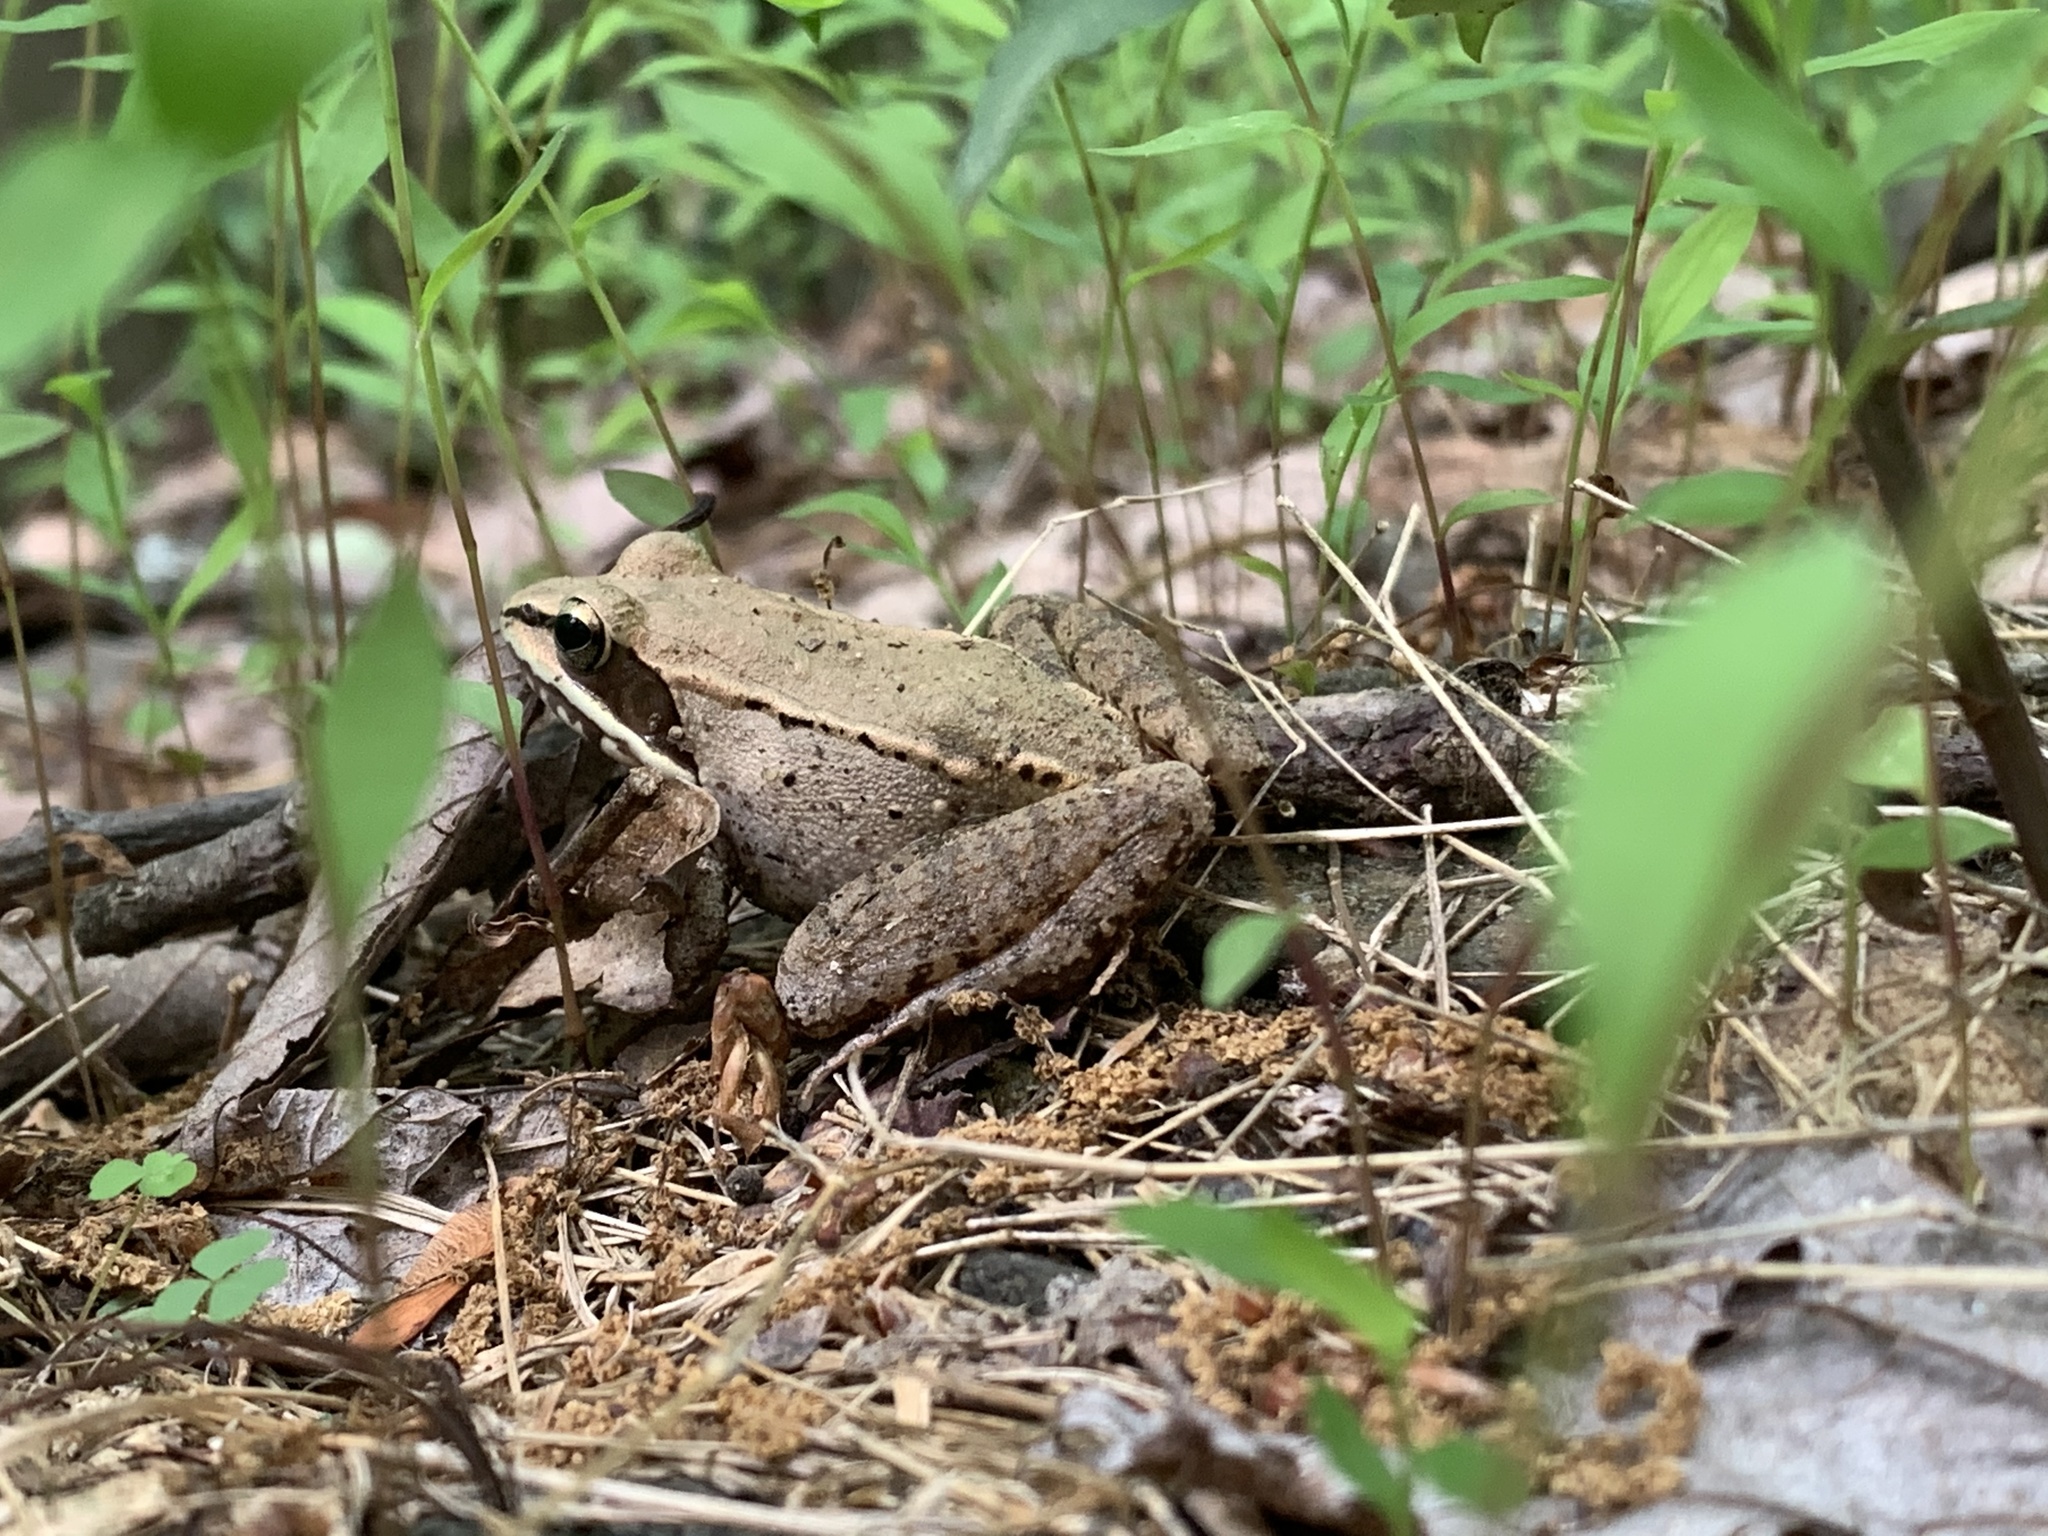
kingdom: Animalia
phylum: Chordata
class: Amphibia
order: Anura
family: Ranidae
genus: Lithobates
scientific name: Lithobates sylvaticus
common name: Wood frog
